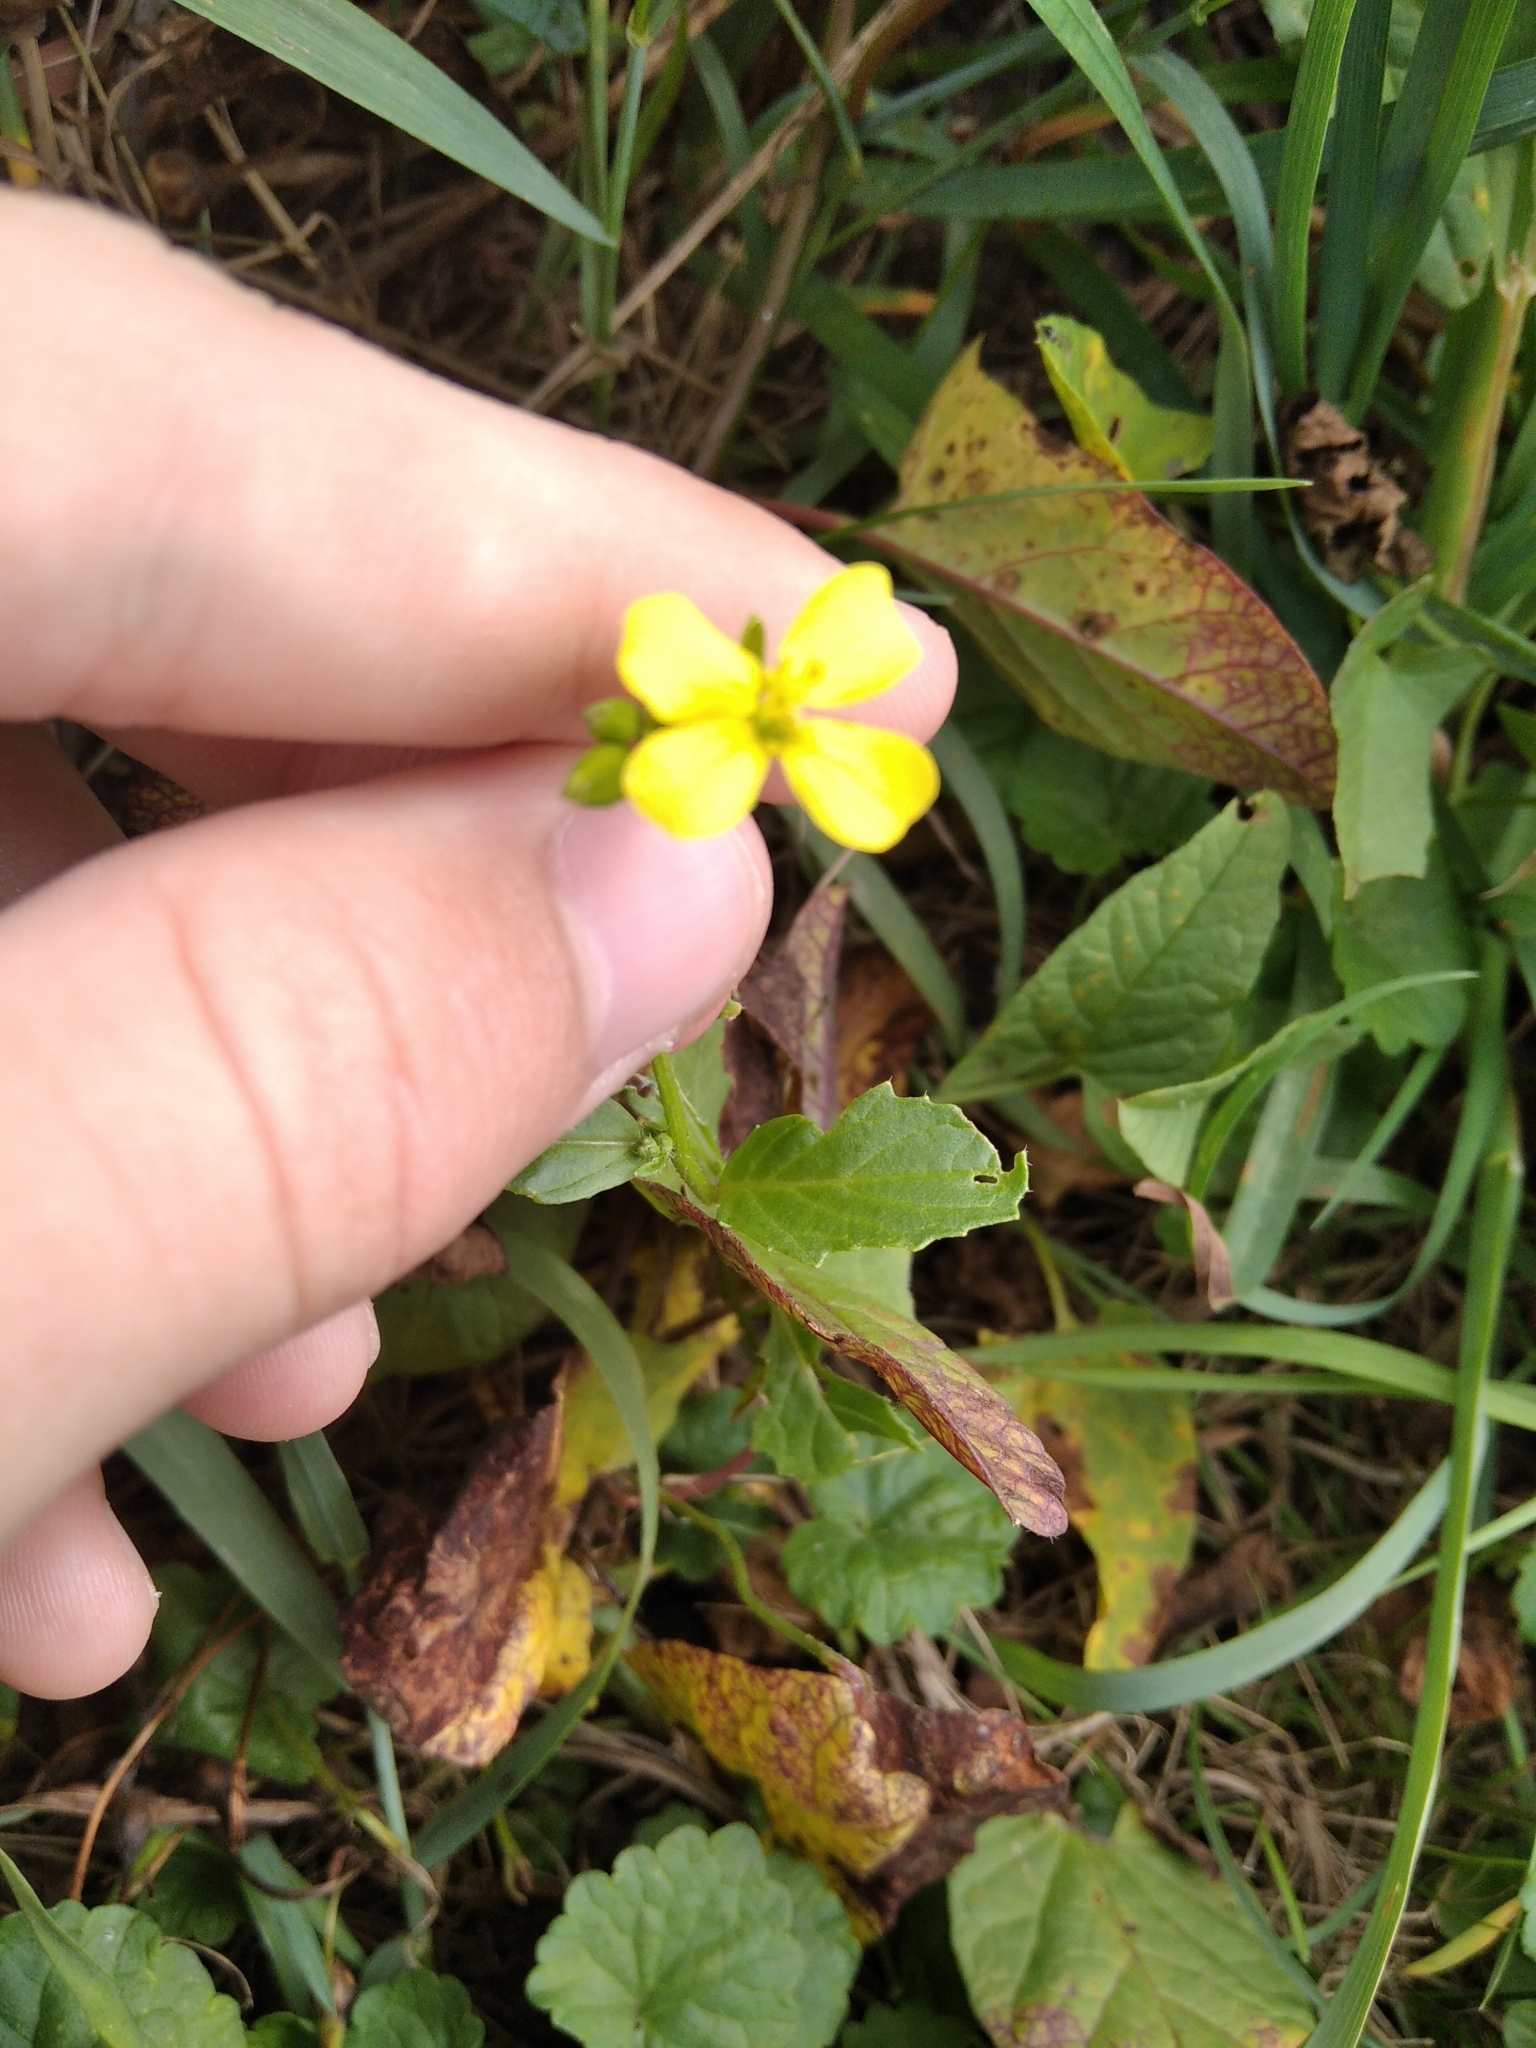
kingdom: Plantae
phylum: Tracheophyta
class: Magnoliopsida
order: Brassicales
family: Brassicaceae
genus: Raphanus
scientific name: Raphanus raphanistrum
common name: Wild radish
